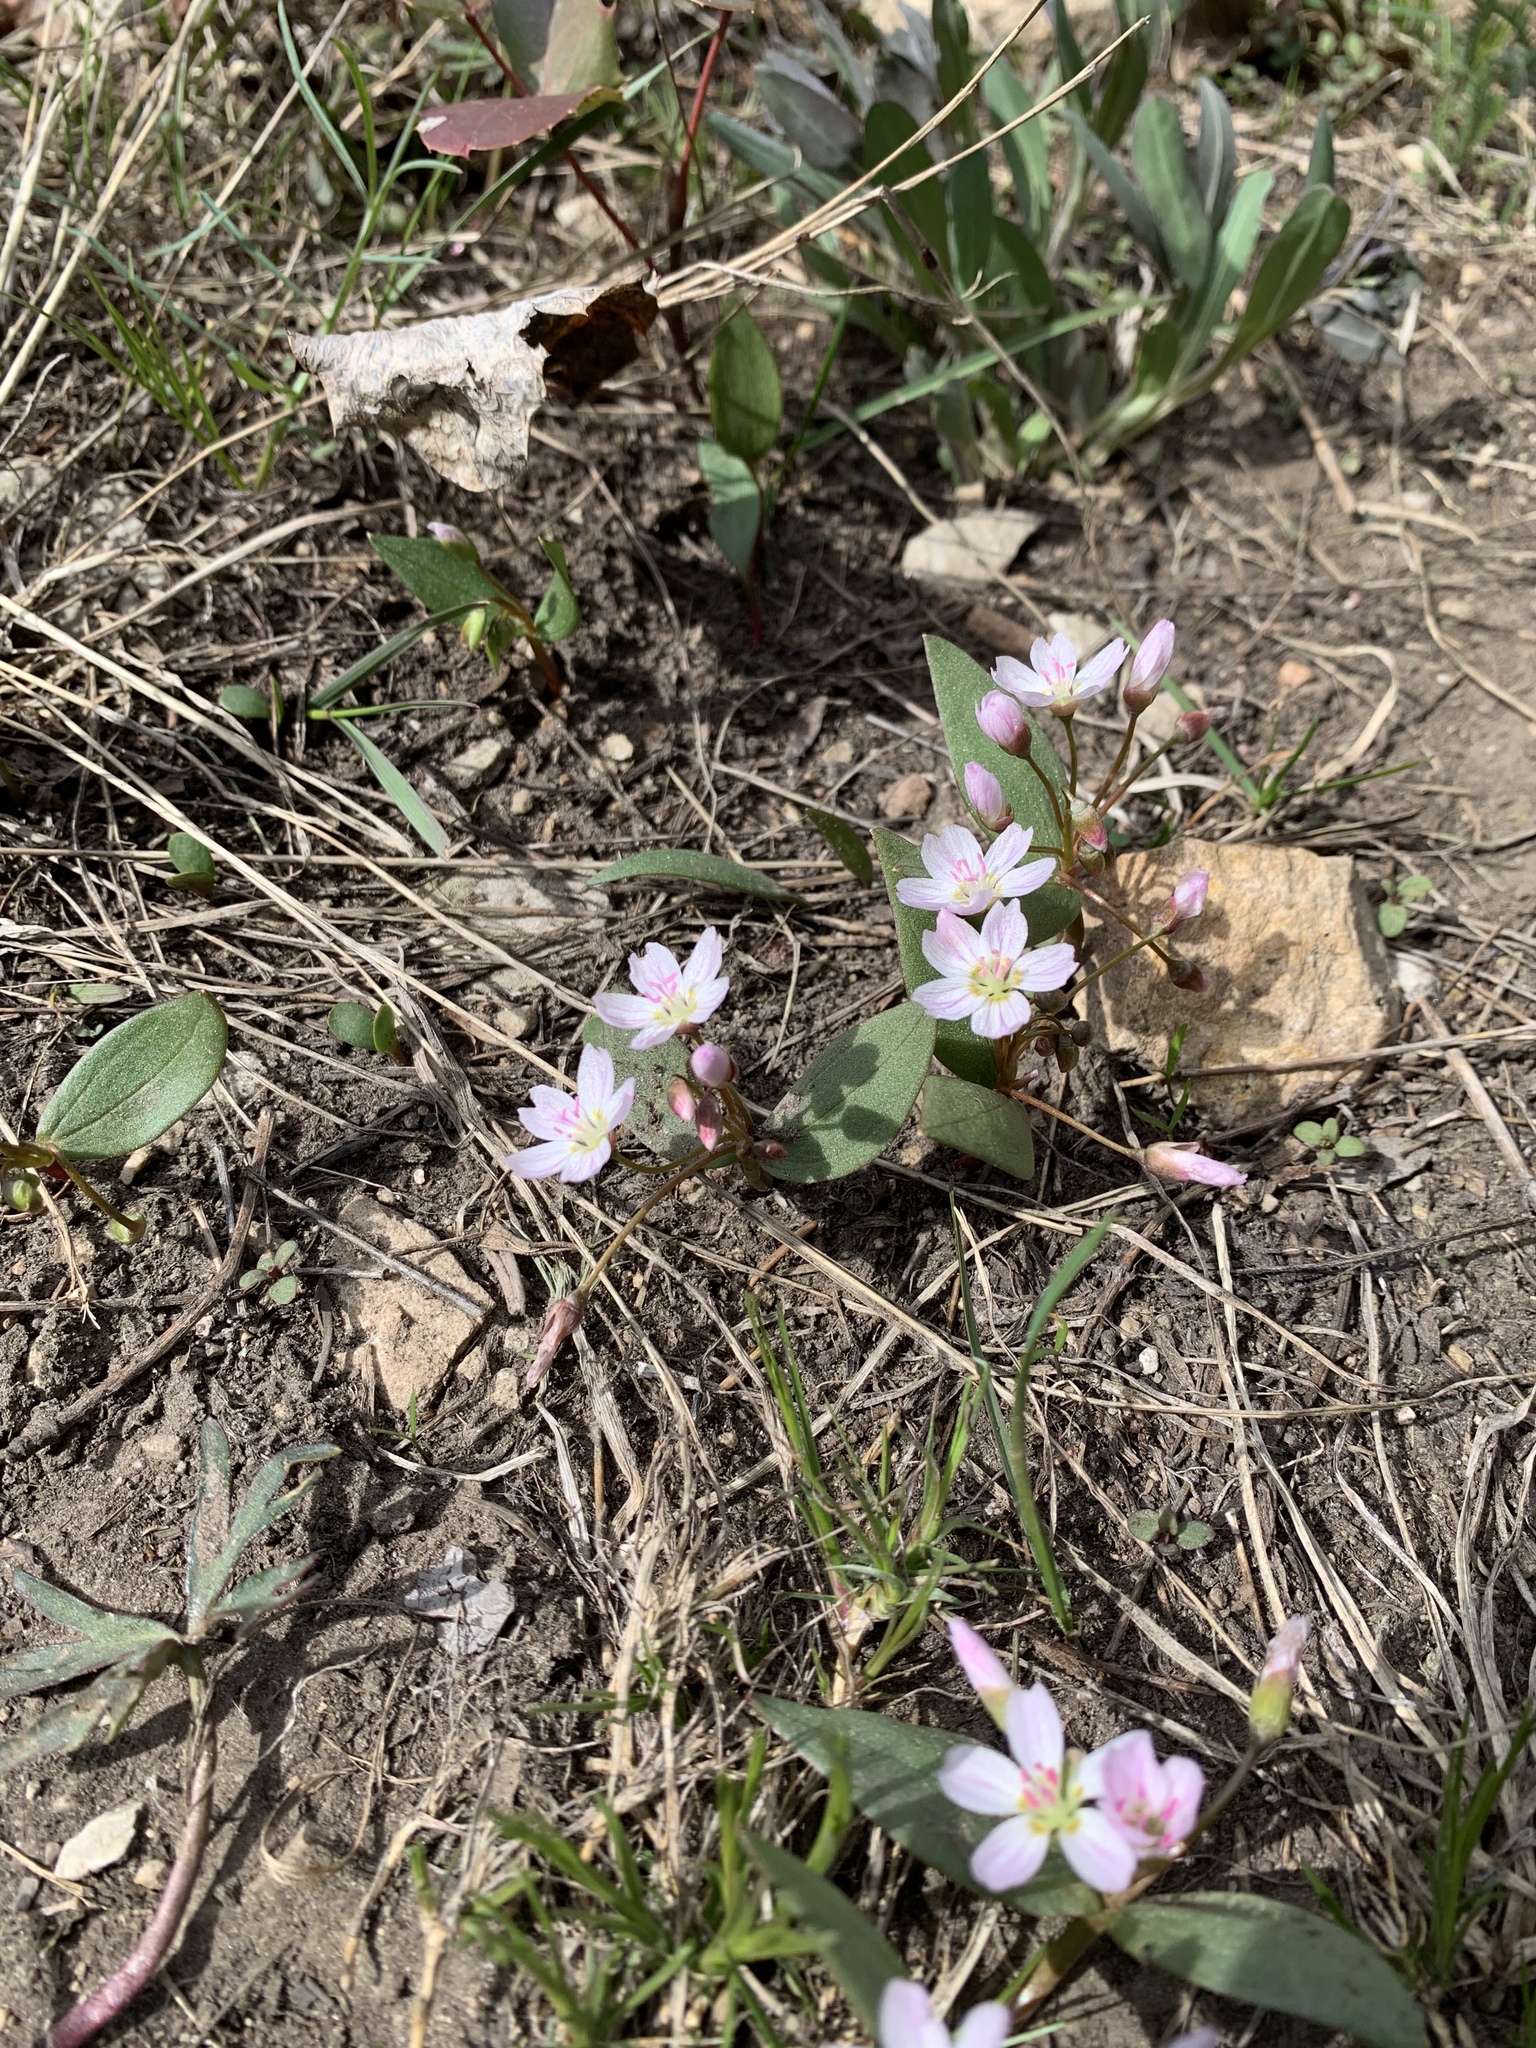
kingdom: Plantae
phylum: Tracheophyta
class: Magnoliopsida
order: Caryophyllales
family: Montiaceae
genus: Claytonia
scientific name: Claytonia lanceolata
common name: Western spring-beauty
